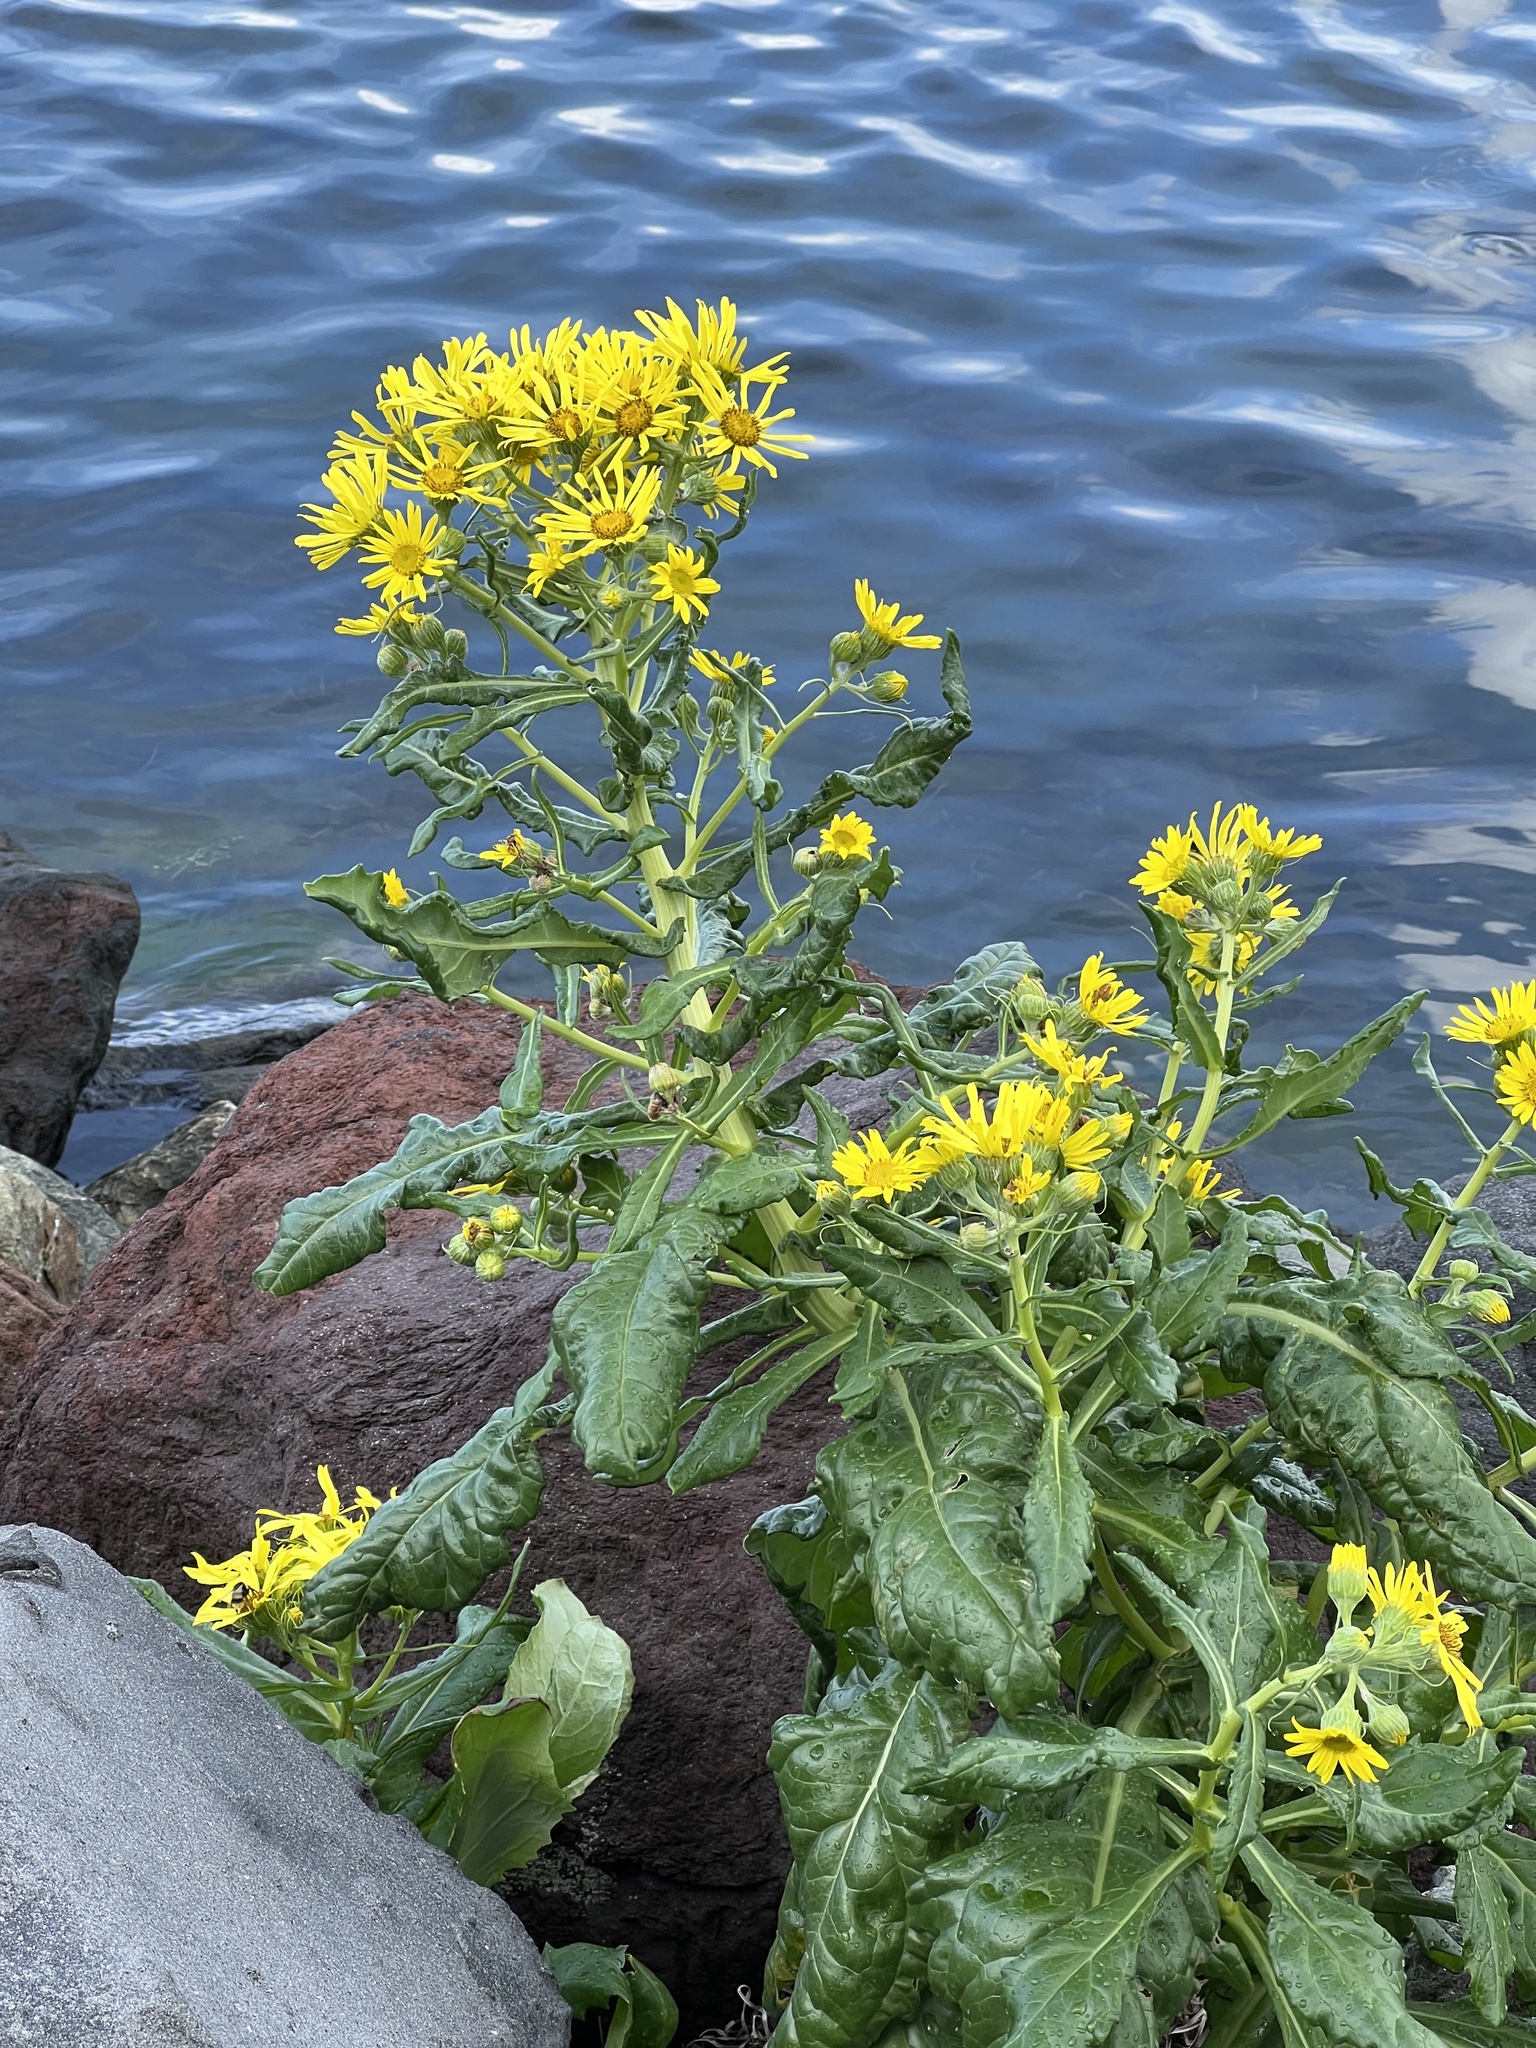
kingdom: Plantae
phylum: Tracheophyta
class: Magnoliopsida
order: Asterales
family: Asteraceae
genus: Jacobaea
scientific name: Jacobaea pseudoarnica
